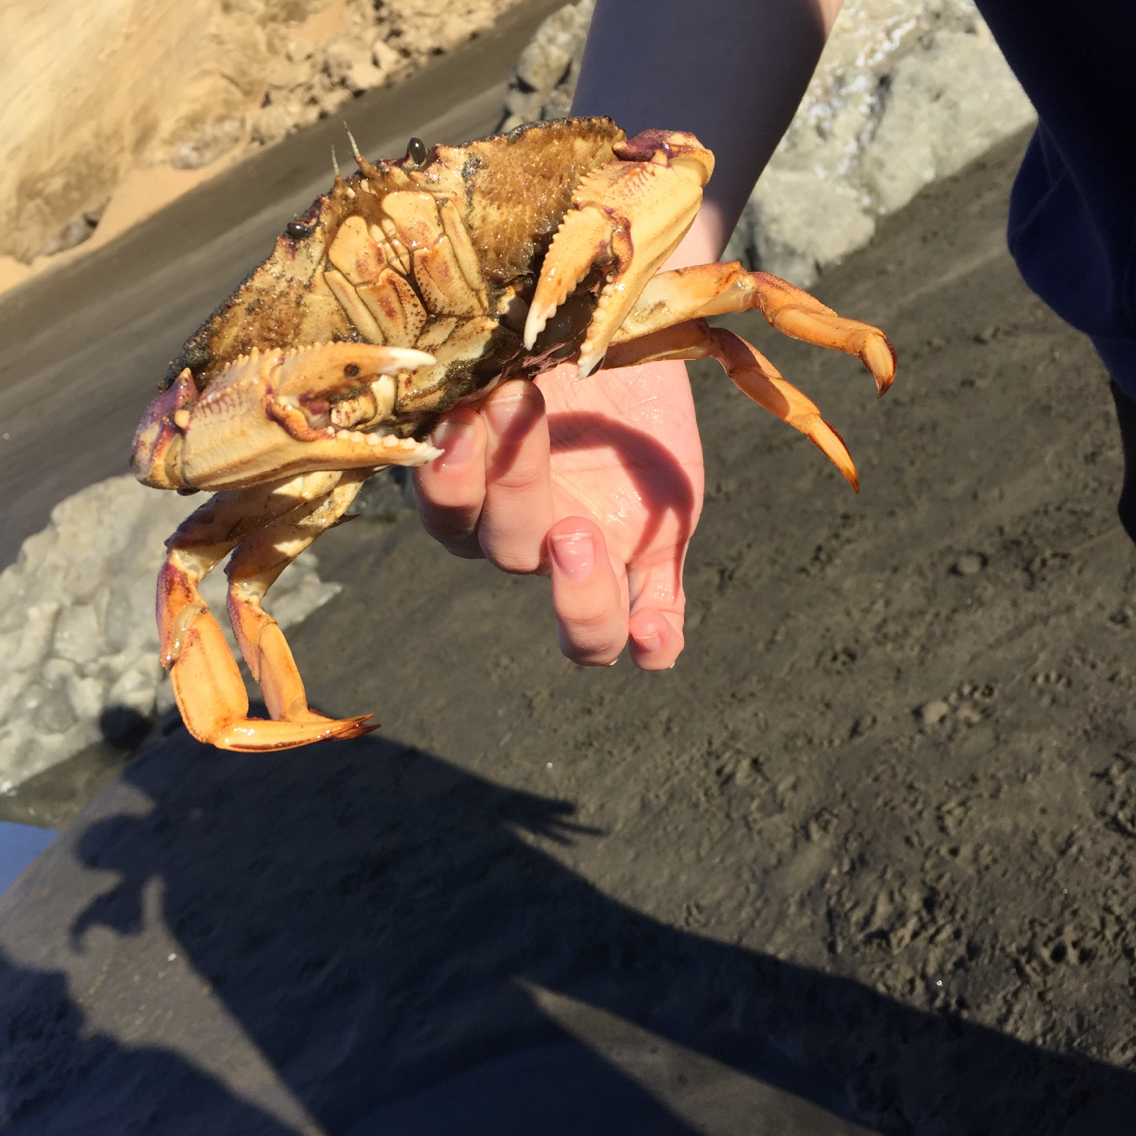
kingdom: Animalia
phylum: Arthropoda
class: Malacostraca
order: Decapoda
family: Cancridae
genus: Metacarcinus
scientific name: Metacarcinus magister
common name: Californian crab
